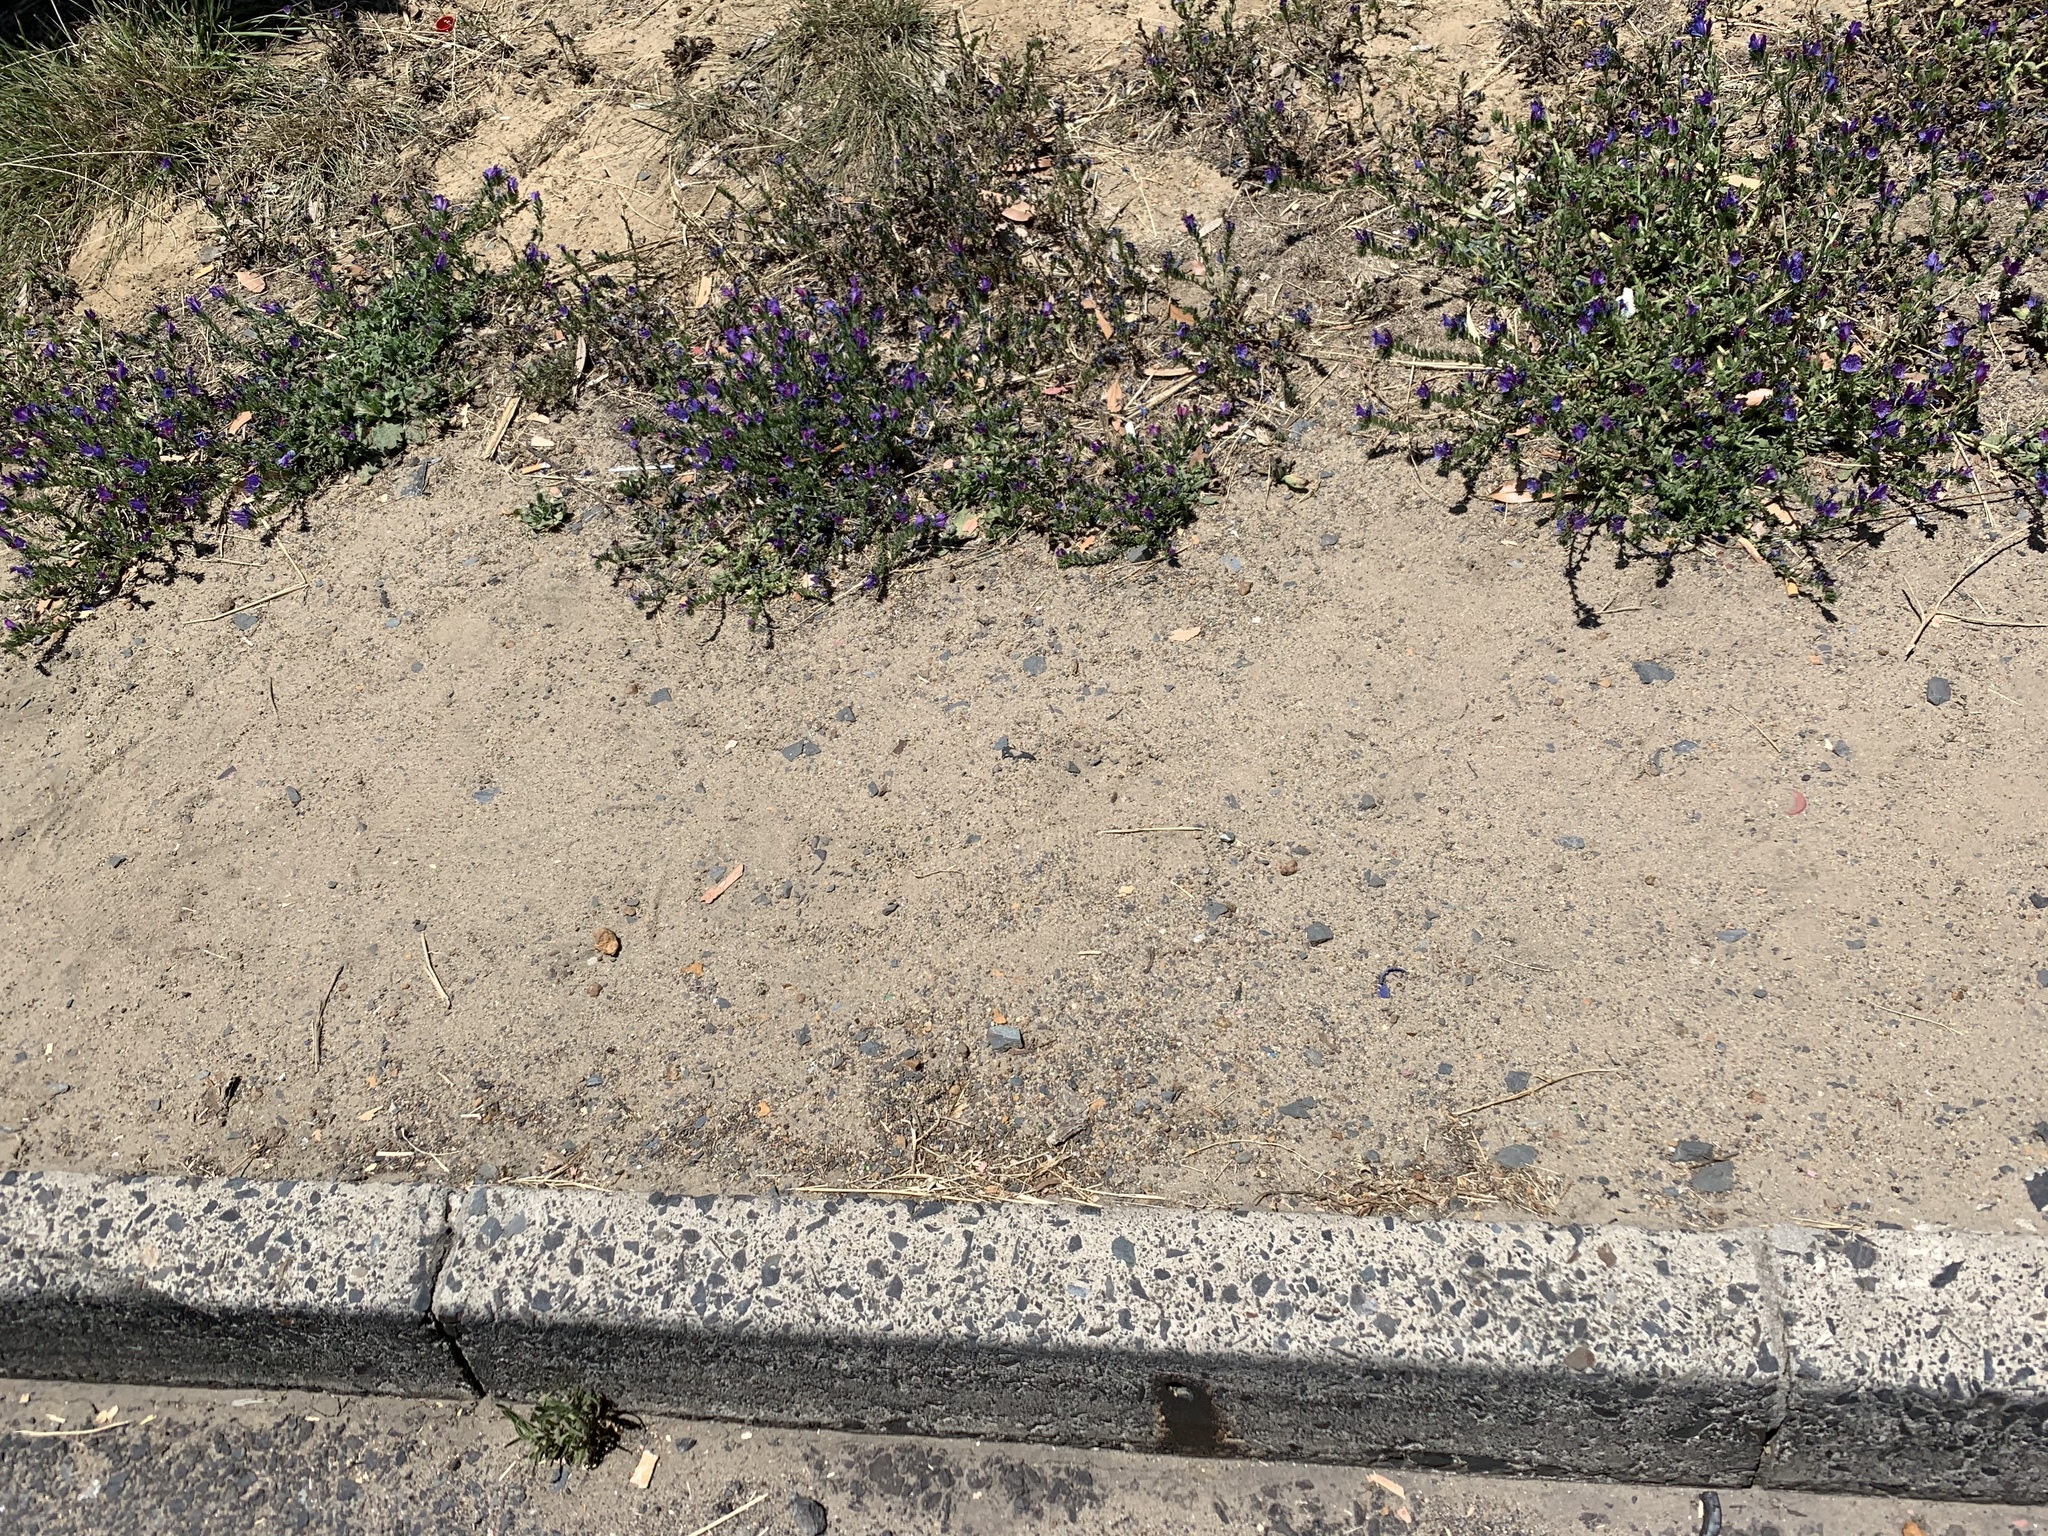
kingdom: Plantae
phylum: Tracheophyta
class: Magnoliopsida
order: Boraginales
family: Boraginaceae
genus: Echium
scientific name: Echium plantagineum
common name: Purple viper's-bugloss
